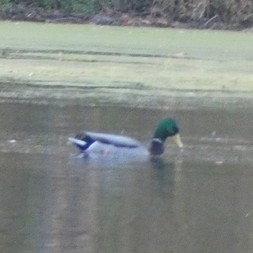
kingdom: Animalia
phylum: Chordata
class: Aves
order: Anseriformes
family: Anatidae
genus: Anas
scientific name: Anas platyrhynchos
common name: Mallard
